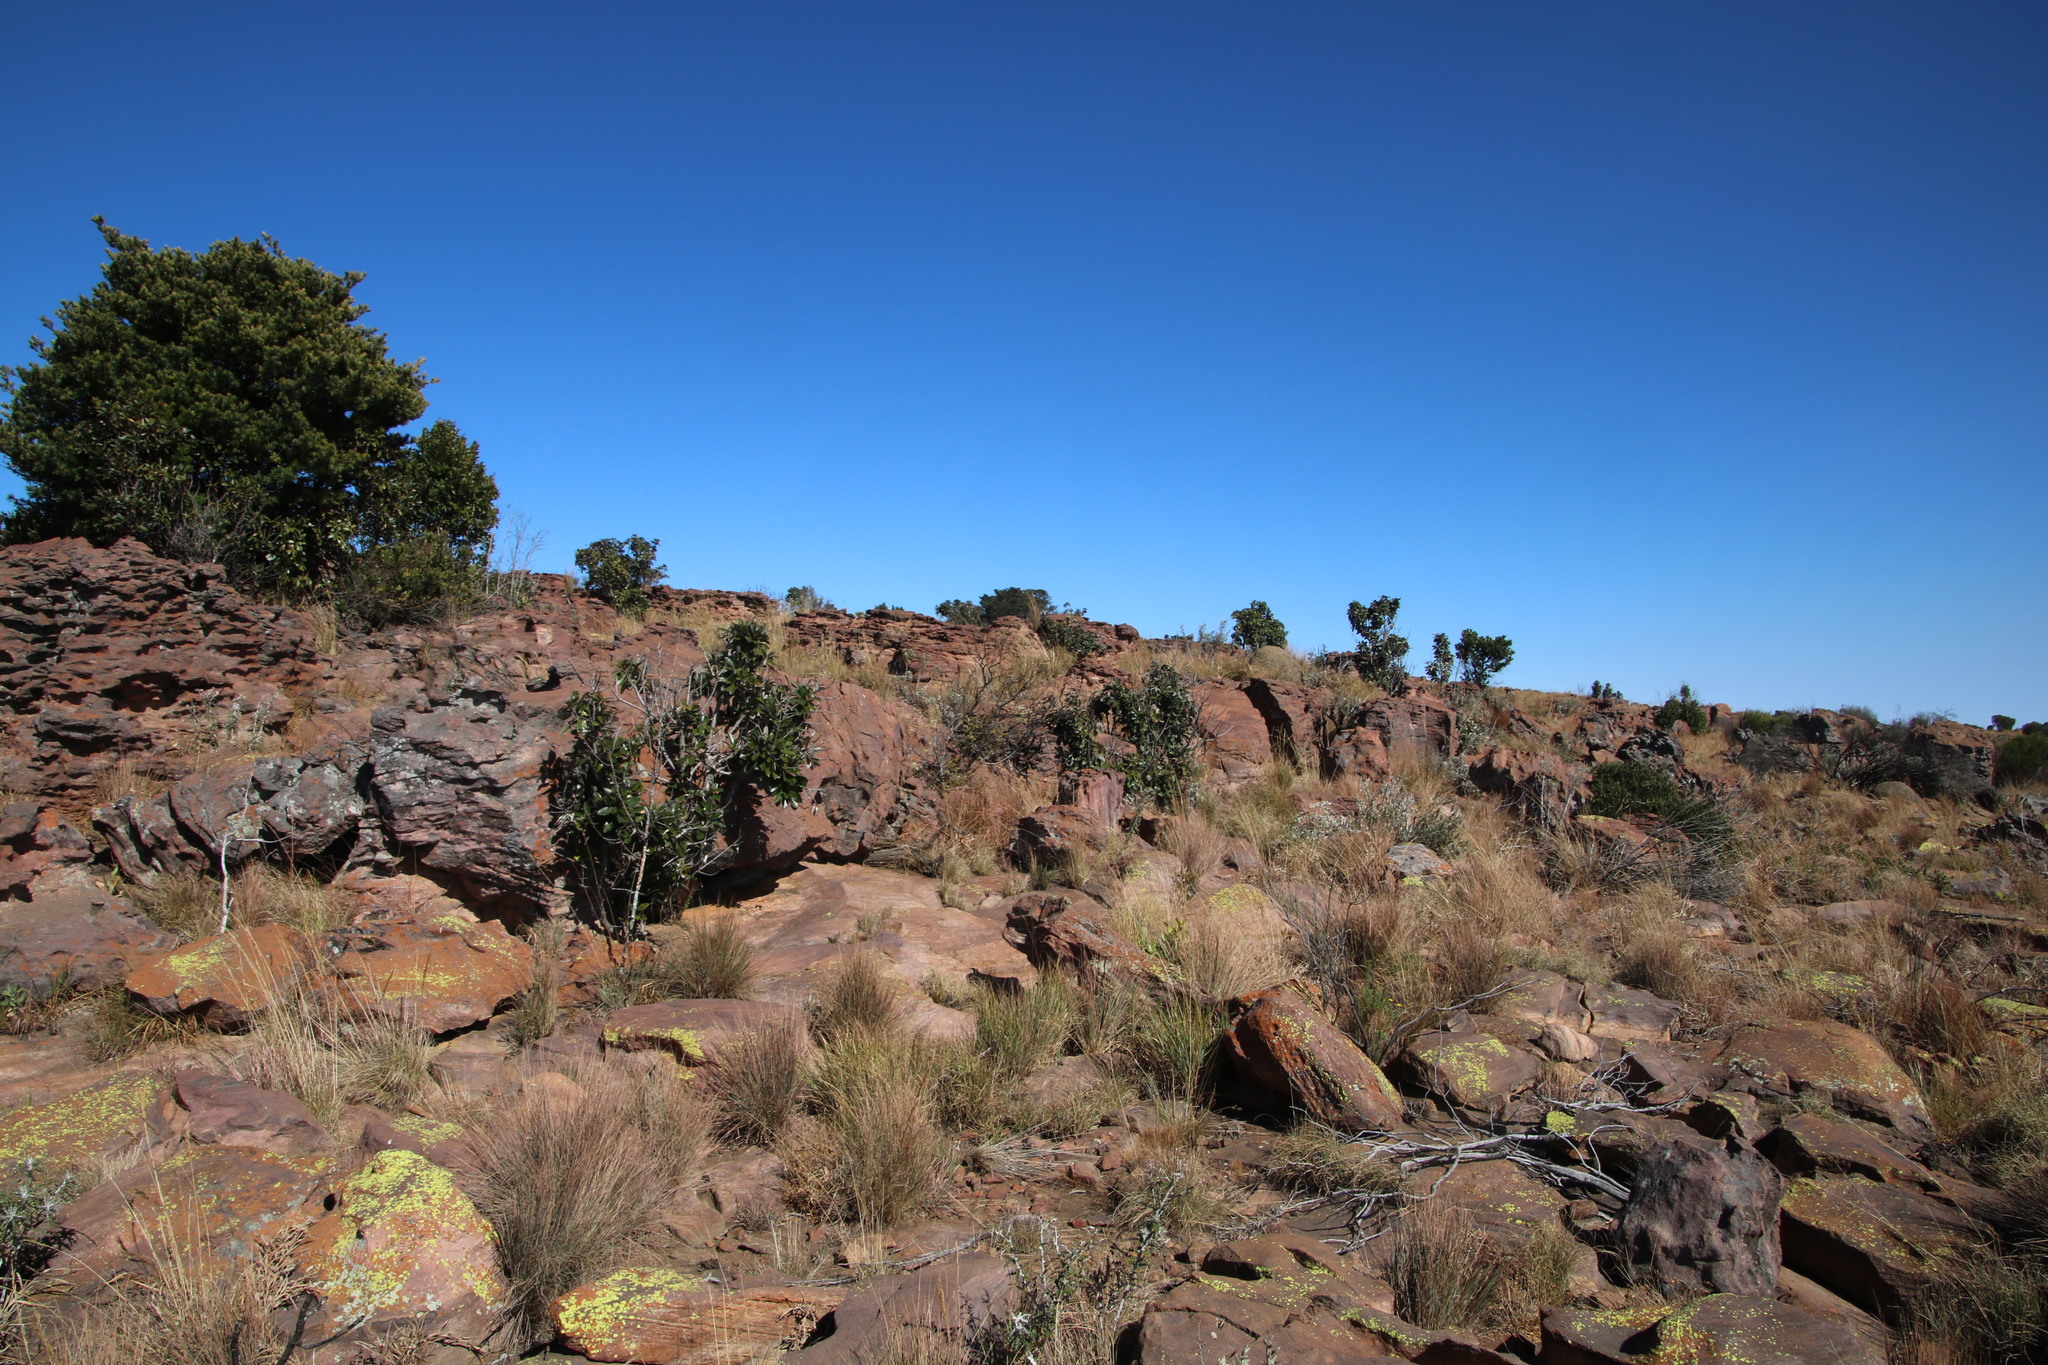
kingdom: Plantae
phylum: Tracheophyta
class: Magnoliopsida
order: Ericales
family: Sapotaceae
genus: Englerophytum
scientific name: Englerophytum magalismontanum
